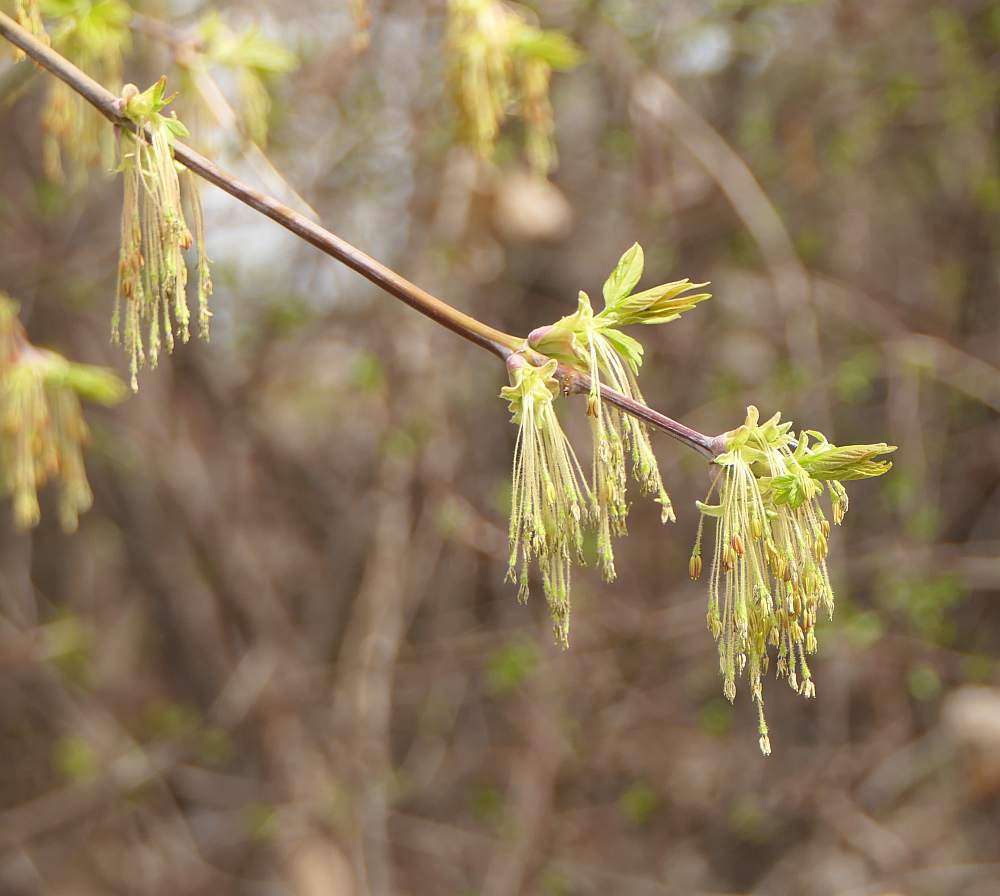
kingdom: Plantae
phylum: Tracheophyta
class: Magnoliopsida
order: Sapindales
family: Sapindaceae
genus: Acer
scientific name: Acer negundo
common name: Ashleaf maple
